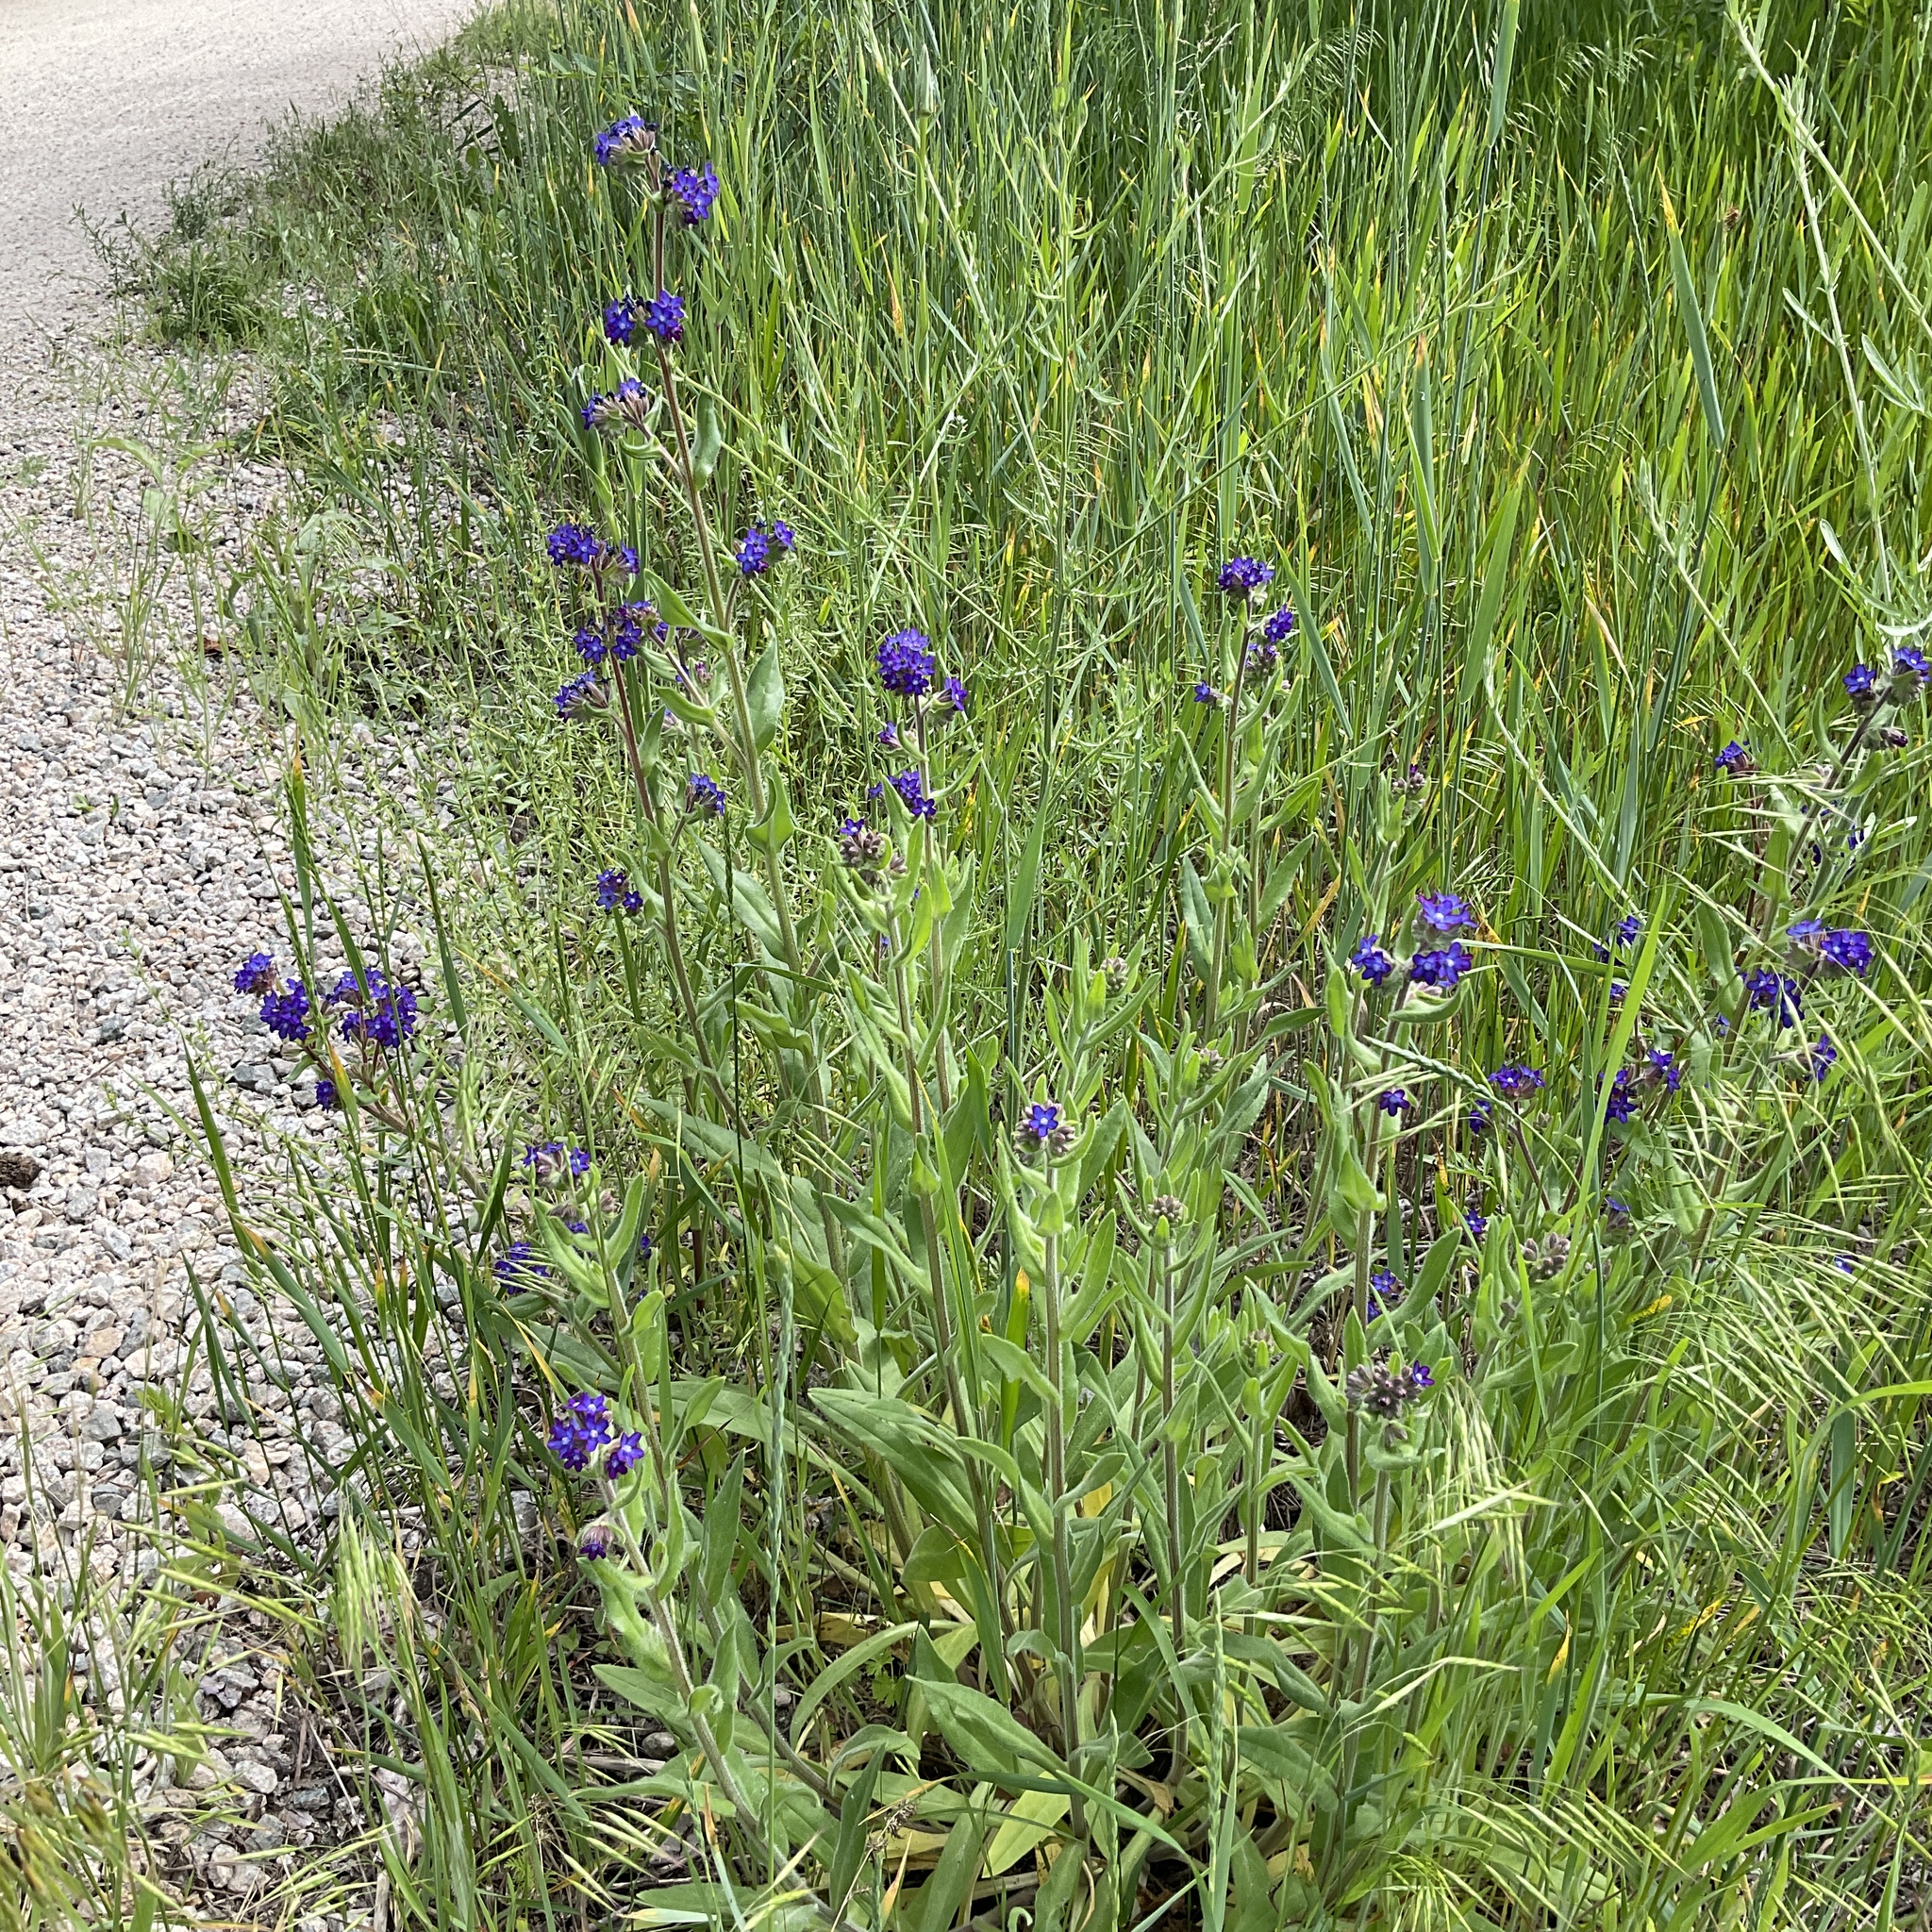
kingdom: Plantae
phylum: Tracheophyta
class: Magnoliopsida
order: Boraginales
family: Boraginaceae
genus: Anchusa
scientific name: Anchusa officinalis
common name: Alkanet
